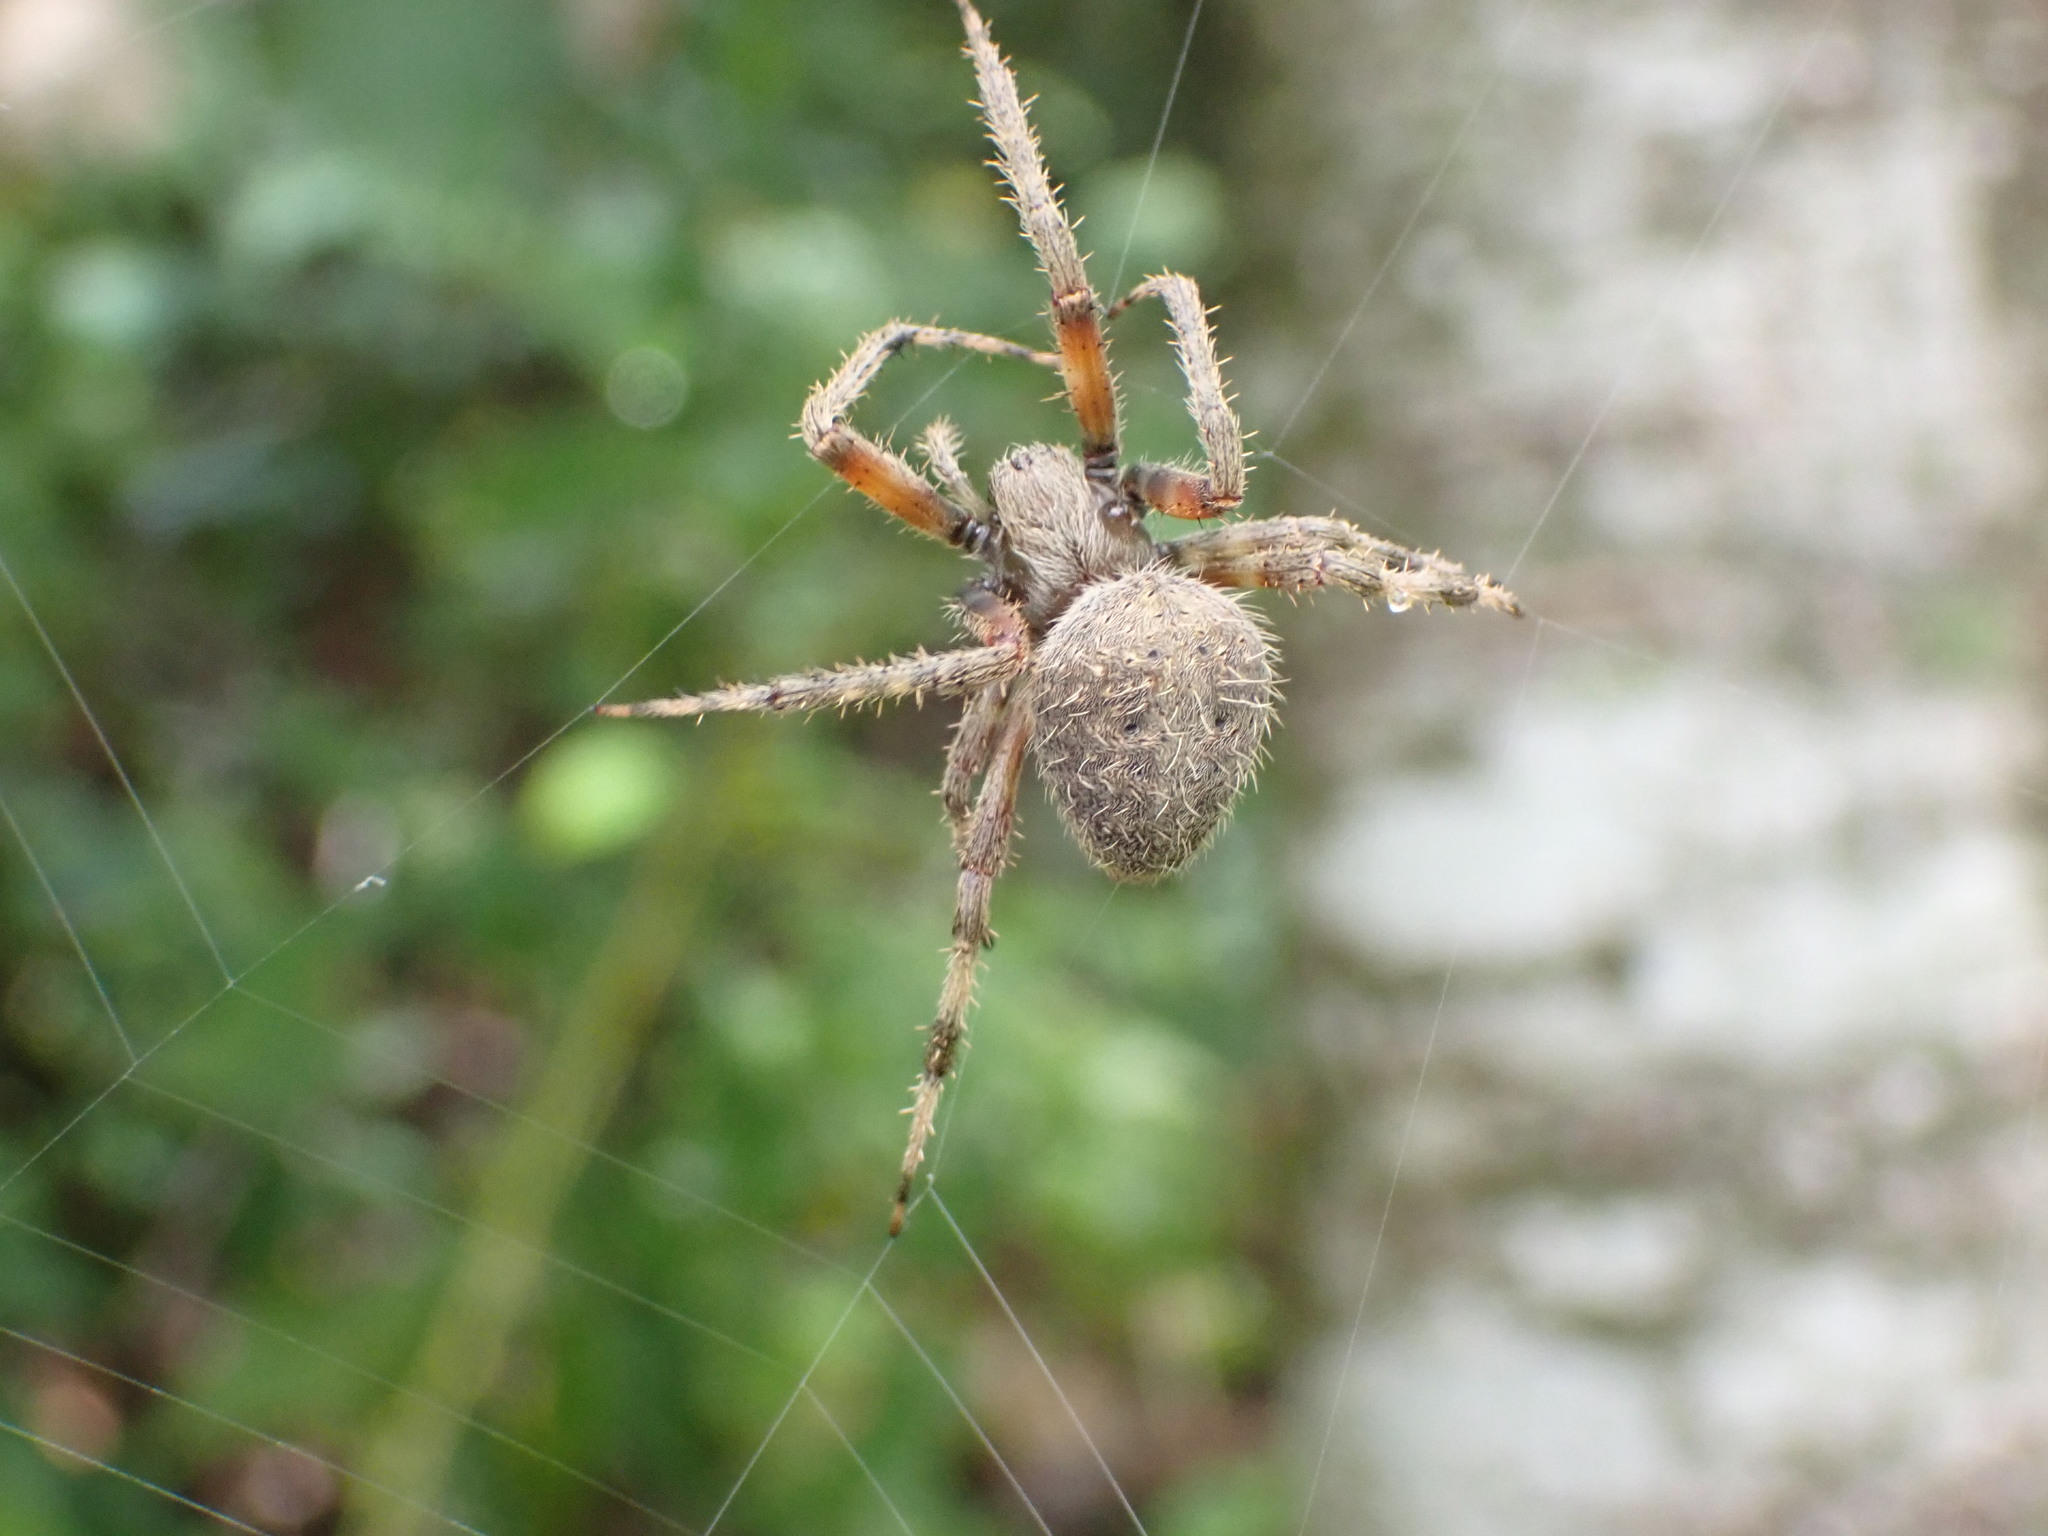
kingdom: Animalia
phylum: Arthropoda
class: Arachnida
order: Araneae
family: Araneidae
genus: Neoscona
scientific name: Neoscona crucifera
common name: Spotted orbweaver
